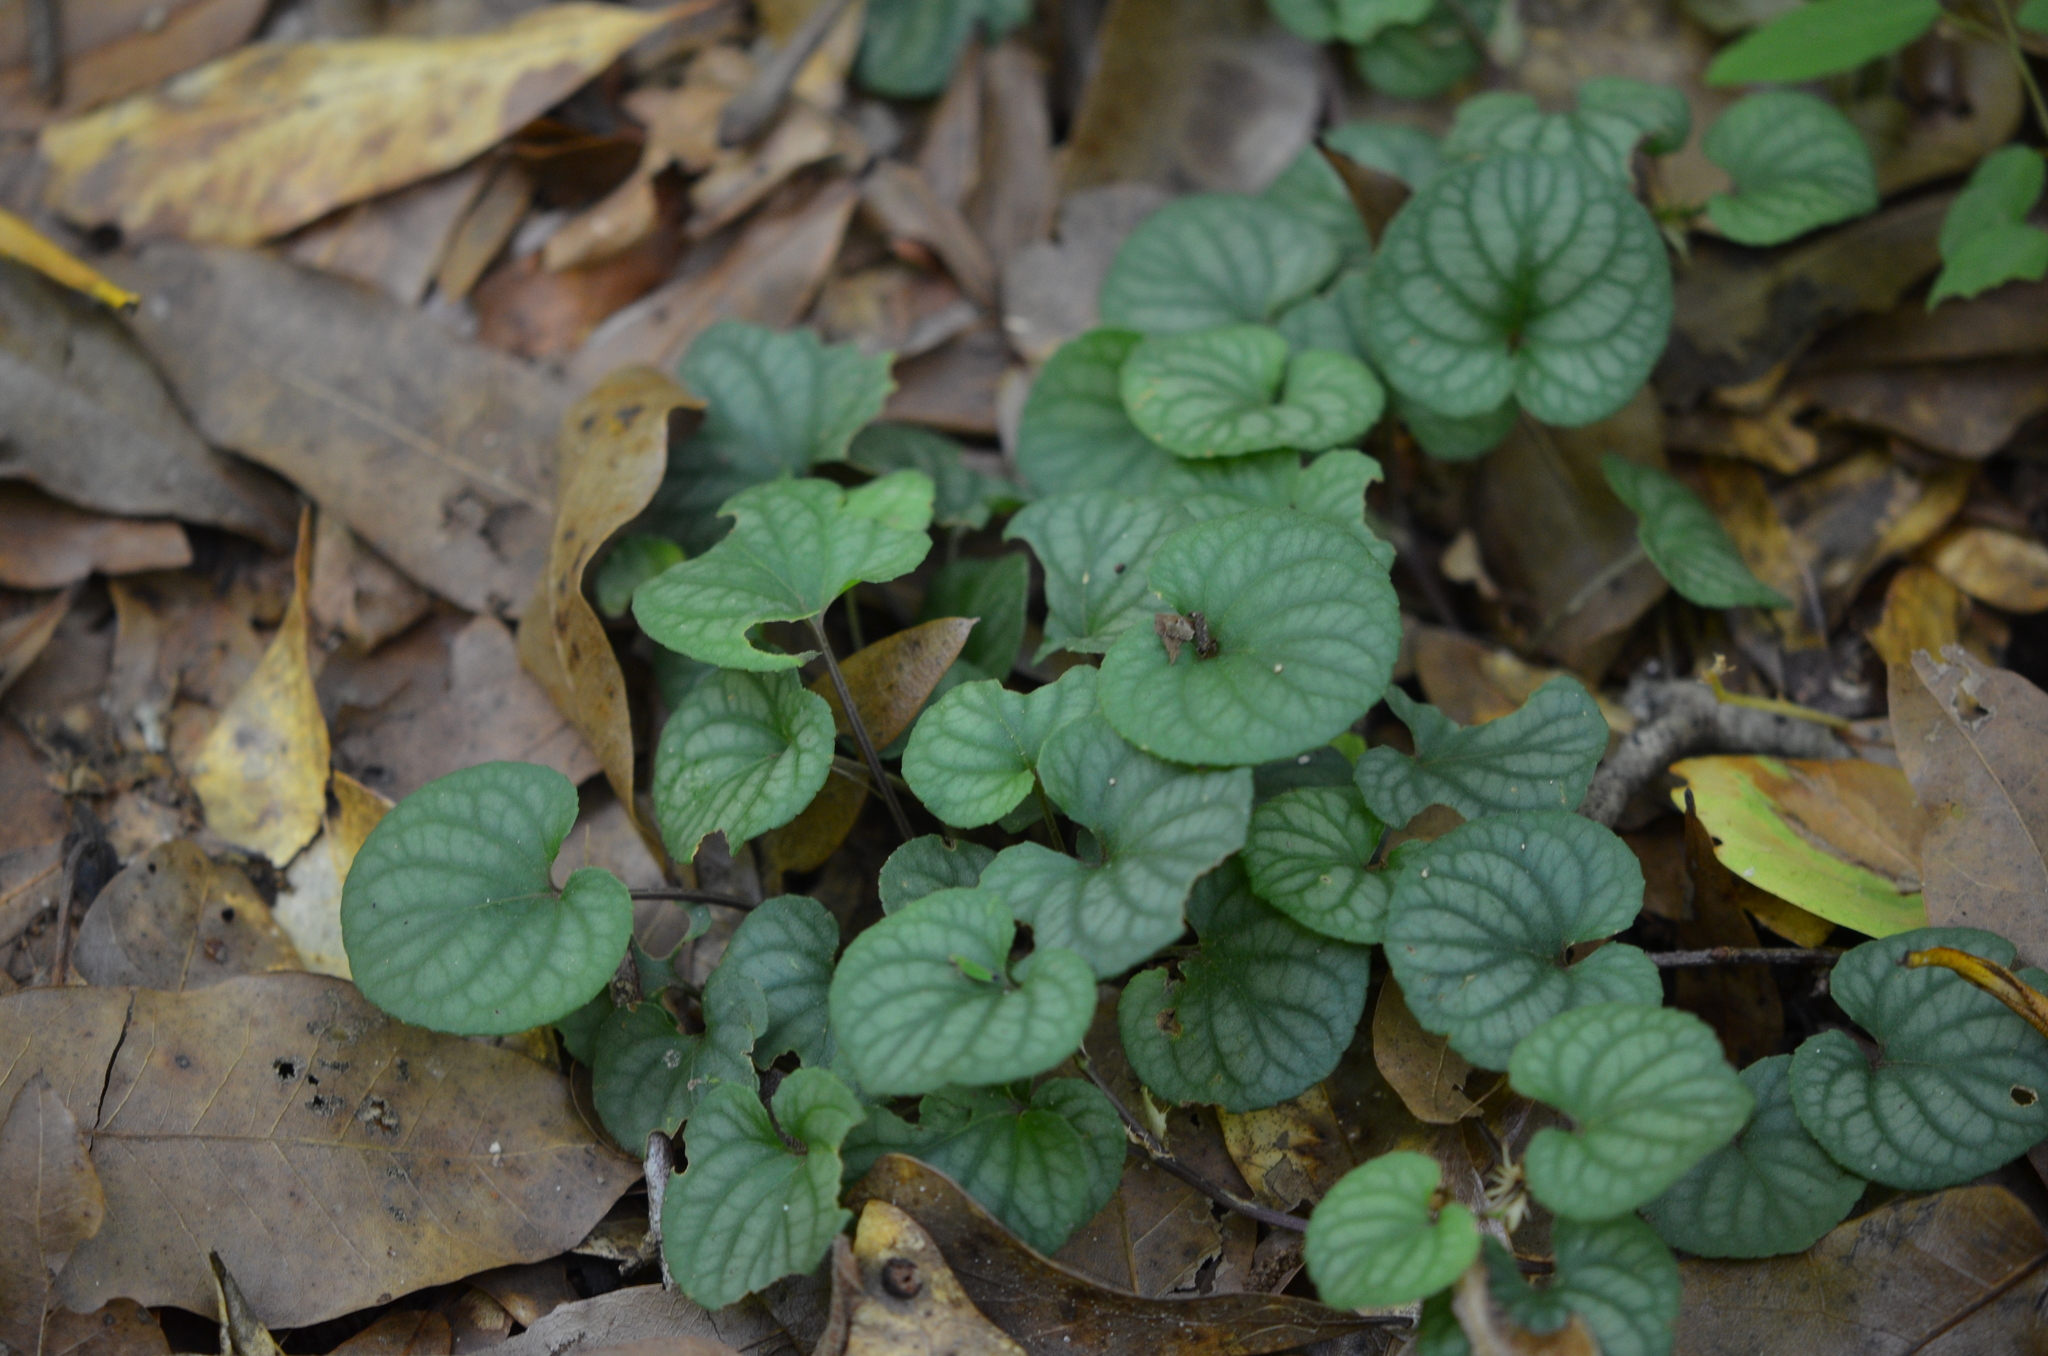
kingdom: Plantae
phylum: Tracheophyta
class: Magnoliopsida
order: Malpighiales
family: Violaceae
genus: Viola
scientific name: Viola walteri
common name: Prostrate southern violet
